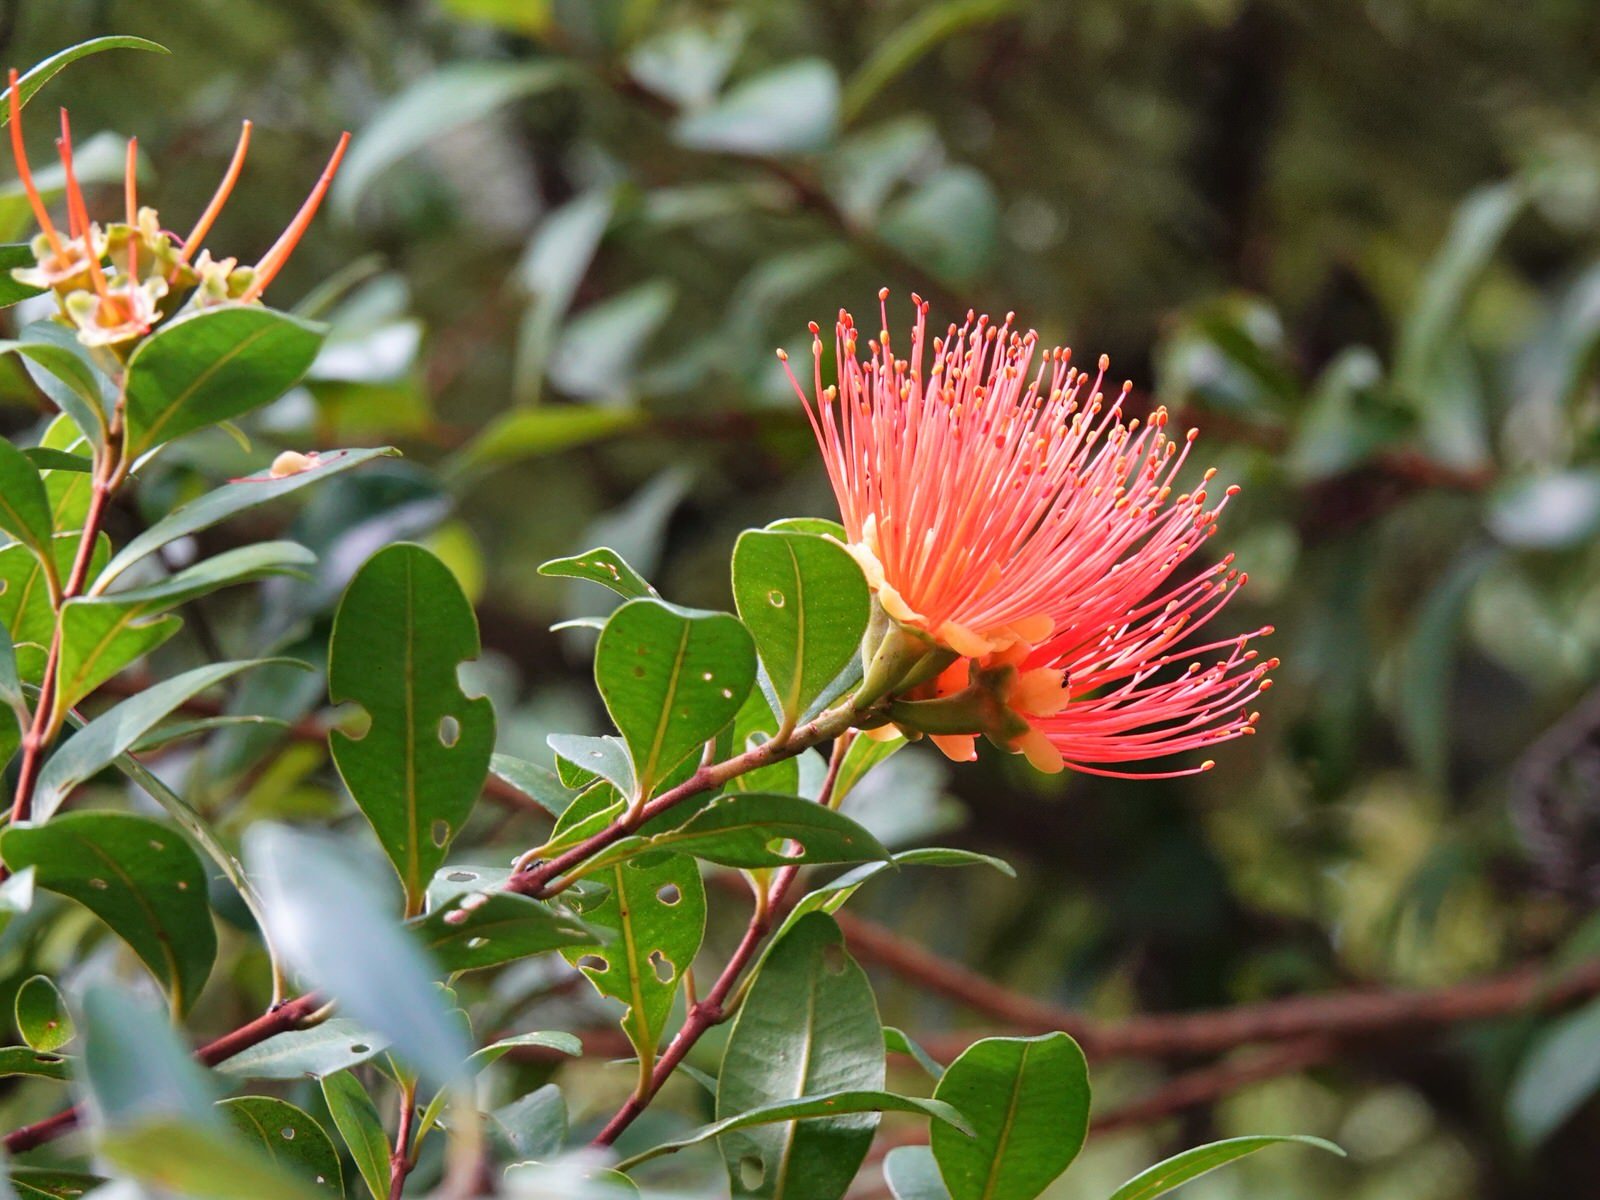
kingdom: Plantae
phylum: Tracheophyta
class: Magnoliopsida
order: Myrtales
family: Myrtaceae
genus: Metrosideros
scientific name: Metrosideros fulgens
